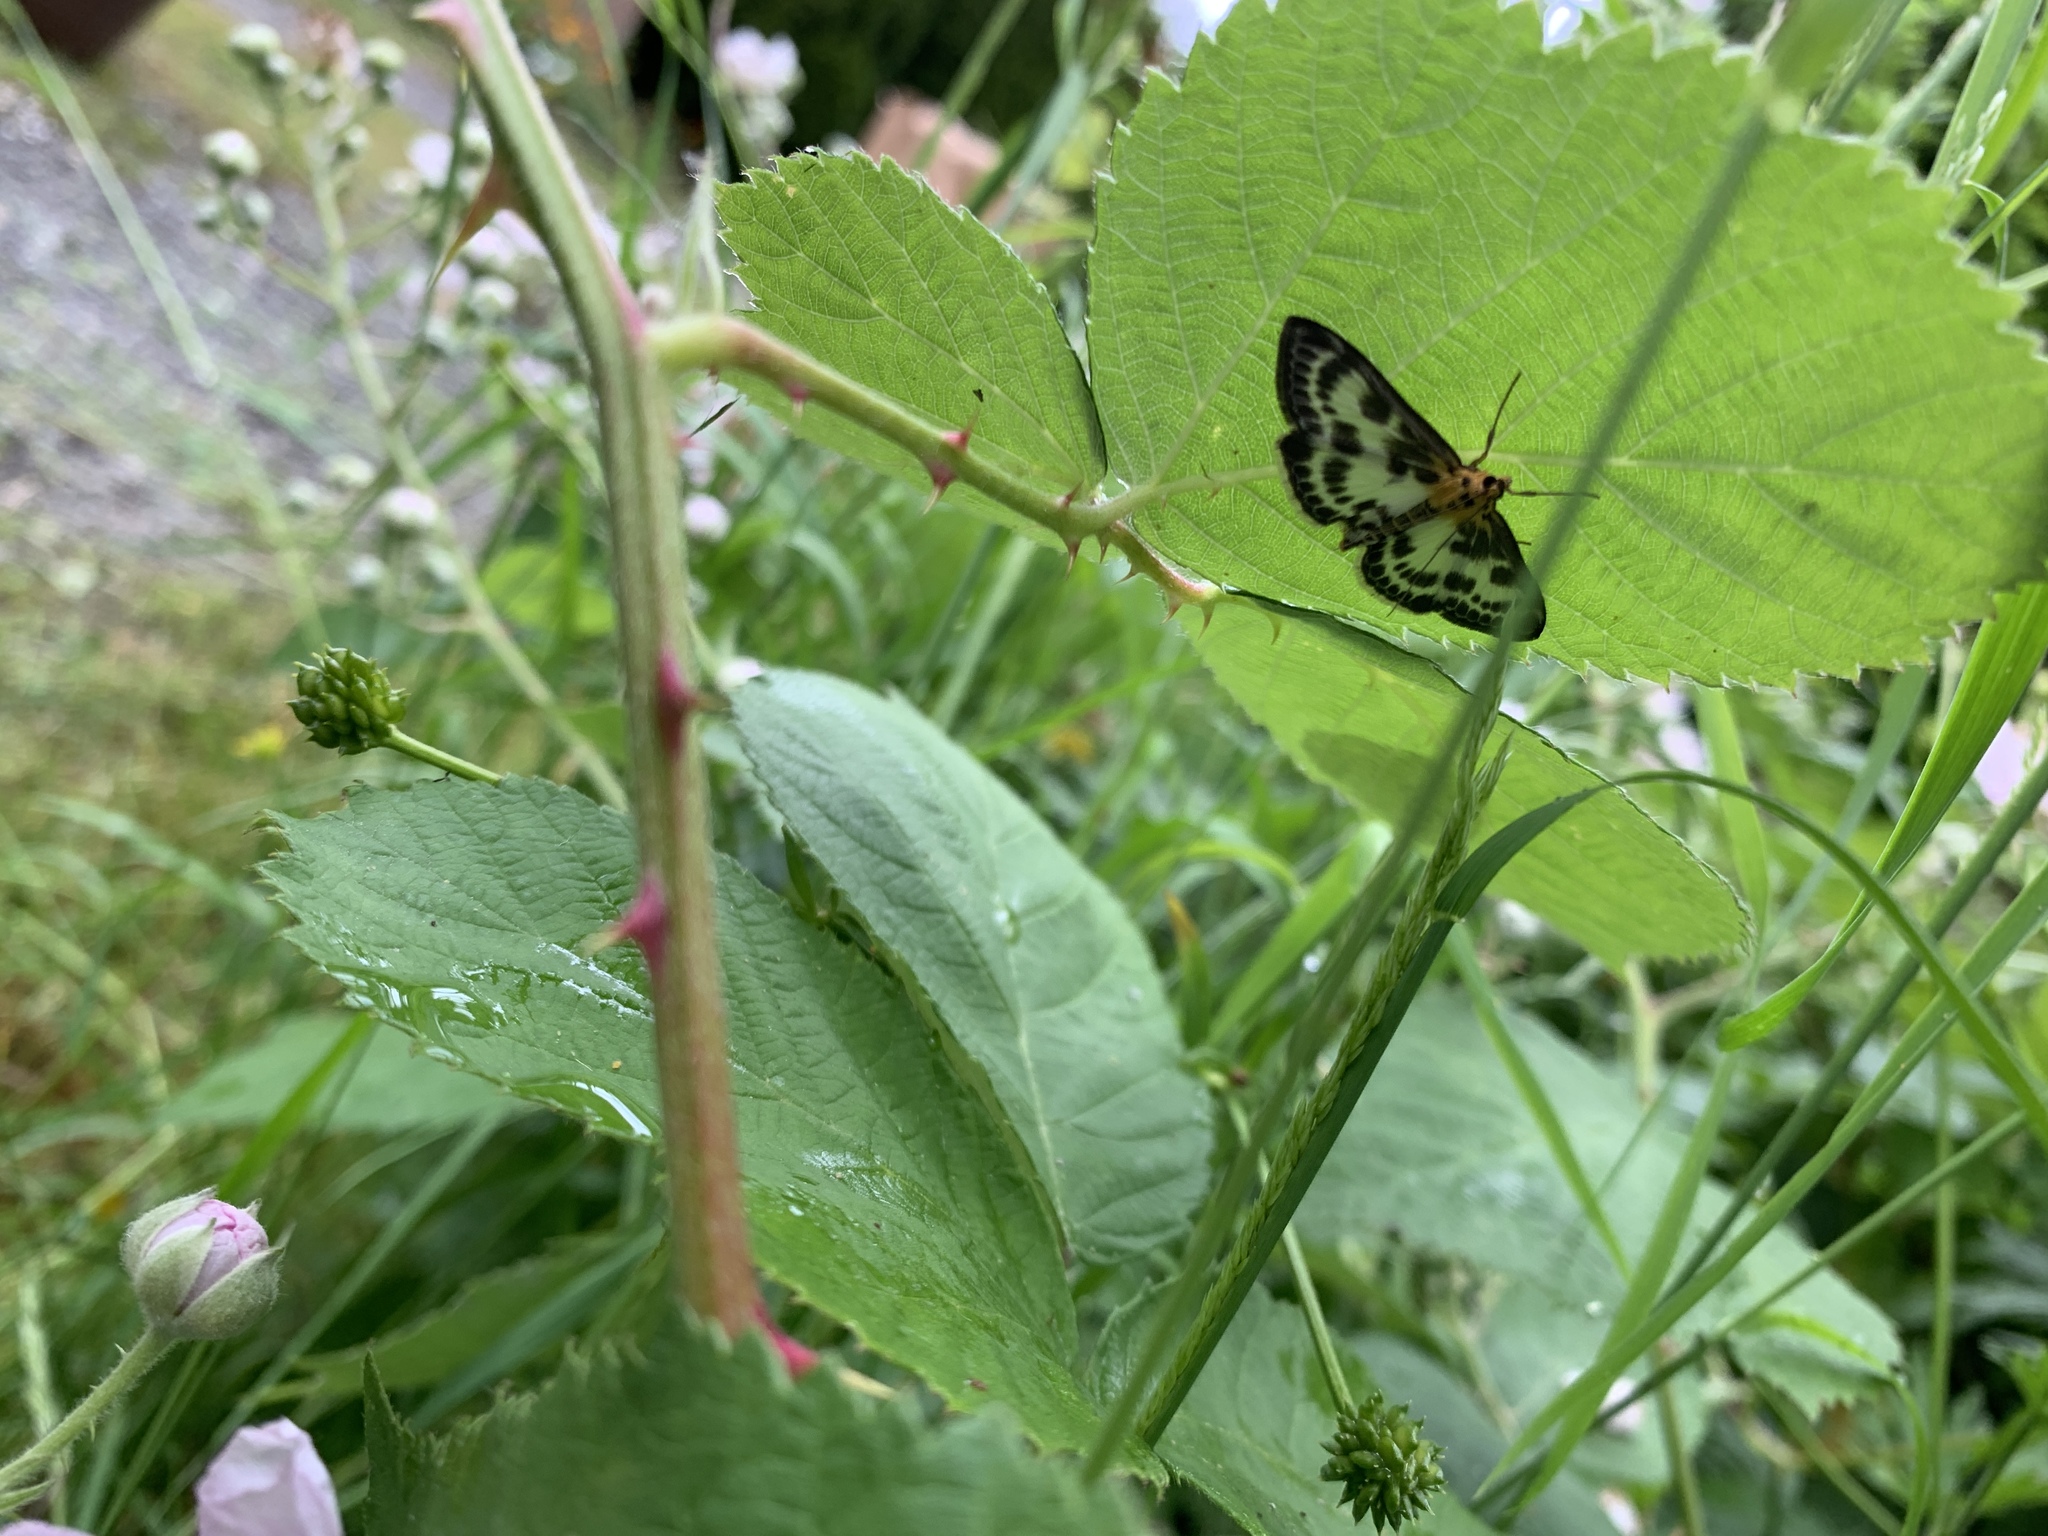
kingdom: Animalia
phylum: Arthropoda
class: Insecta
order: Lepidoptera
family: Crambidae
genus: Anania
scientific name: Anania hortulata
